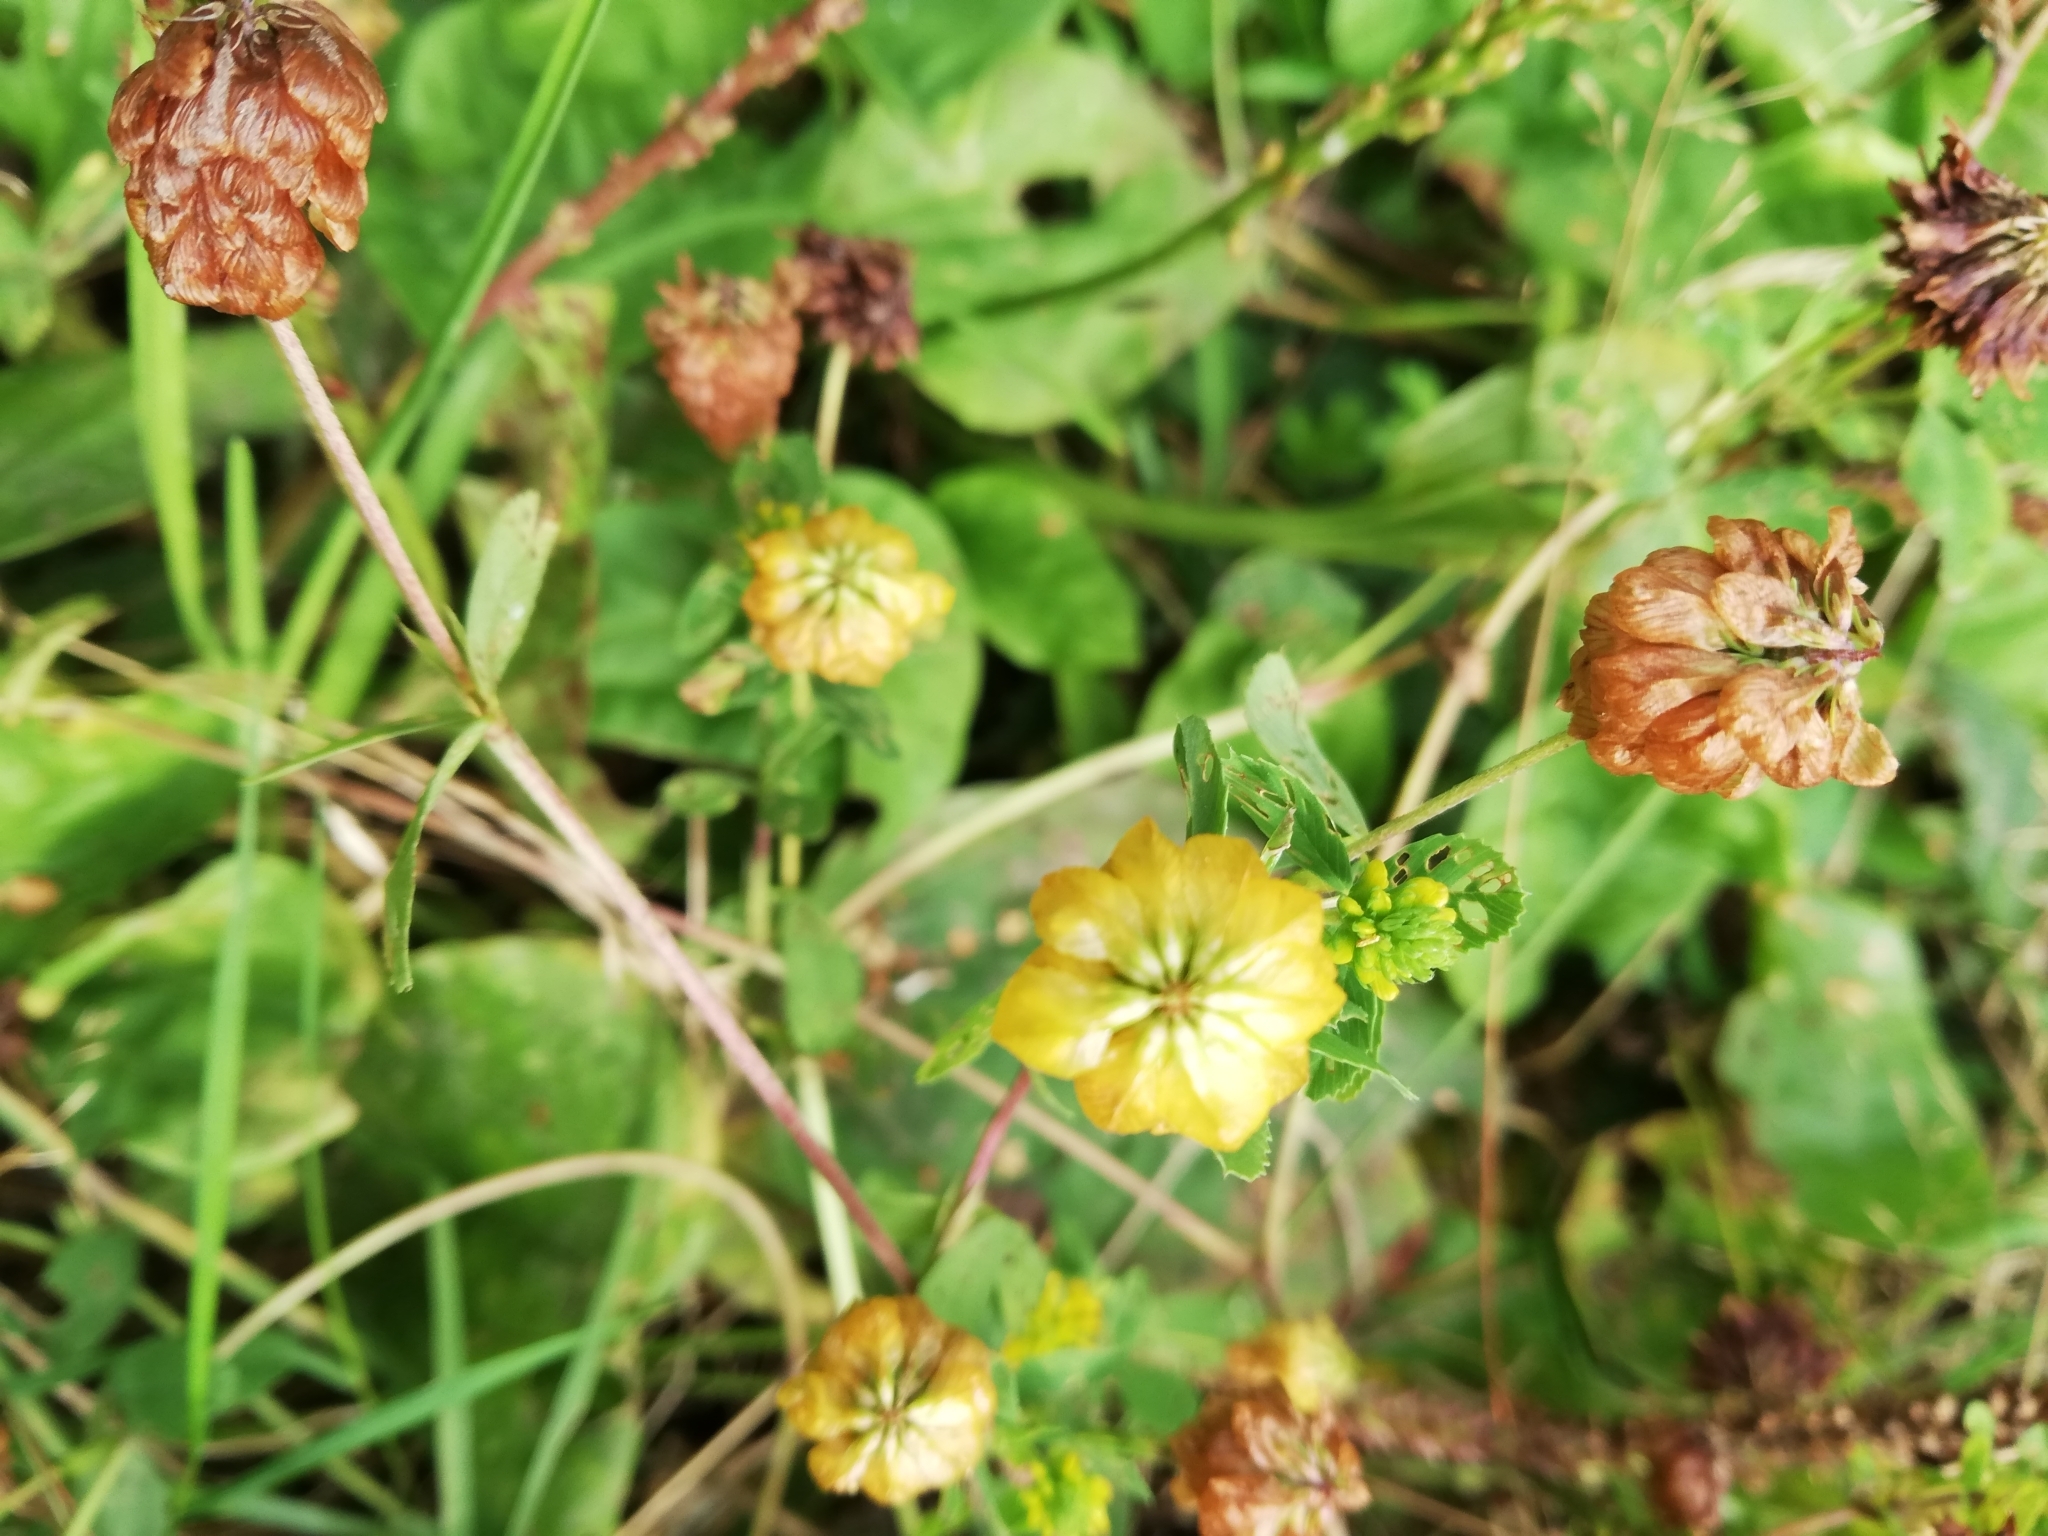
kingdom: Plantae
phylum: Tracheophyta
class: Magnoliopsida
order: Fabales
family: Fabaceae
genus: Trifolium
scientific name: Trifolium aureum
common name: Golden clover
